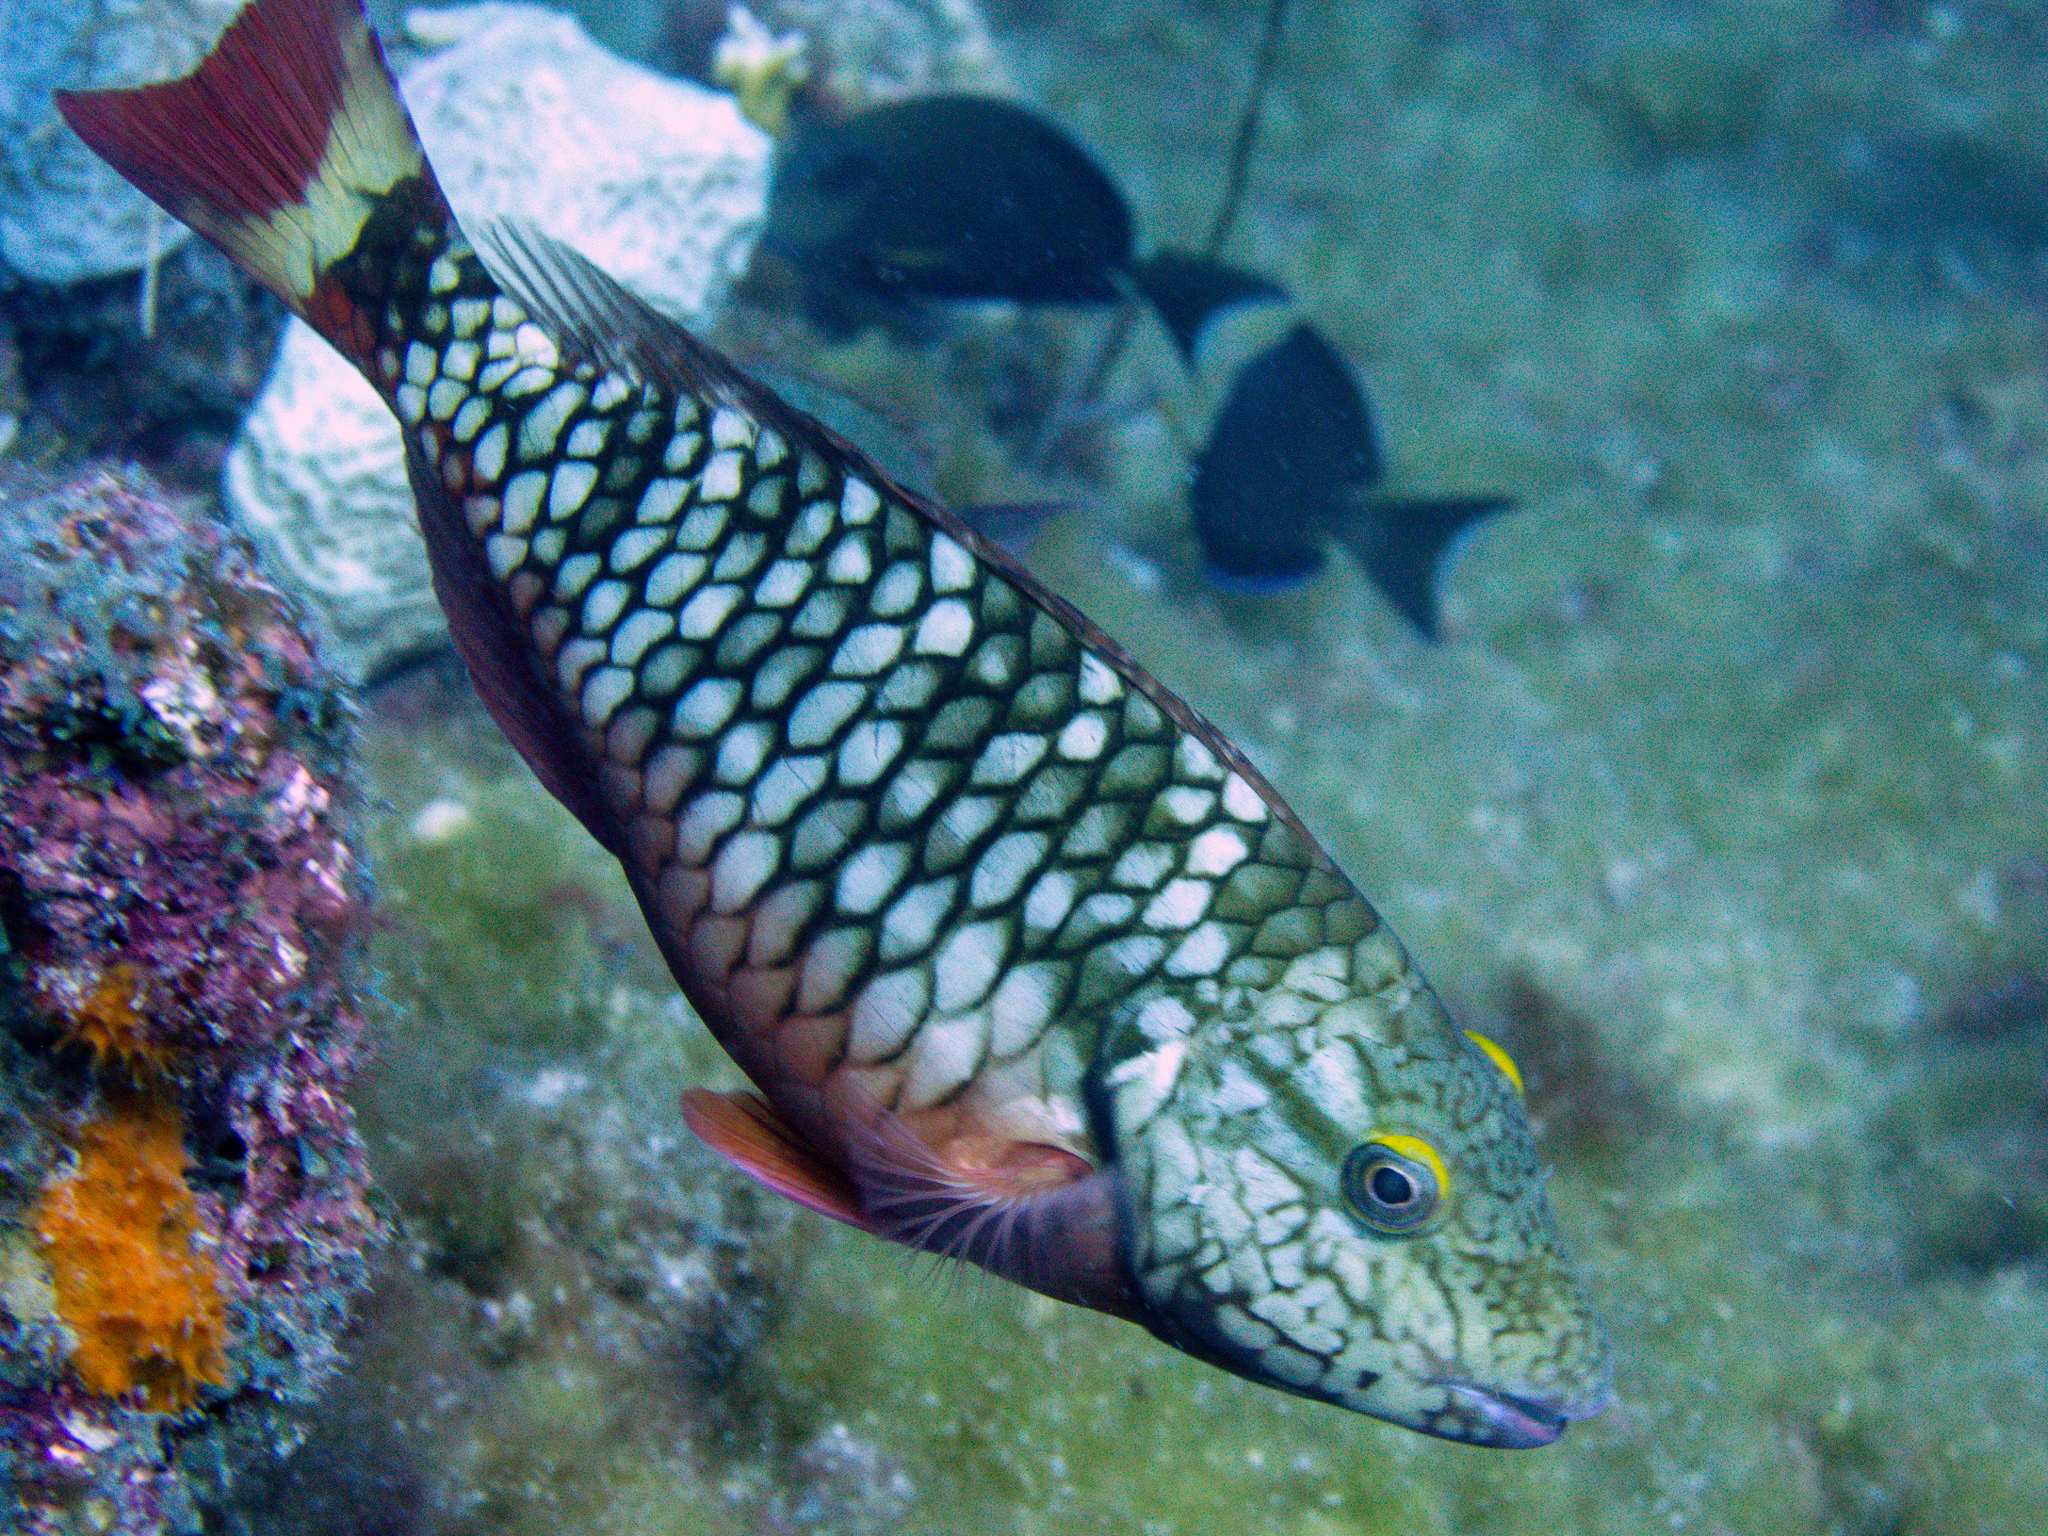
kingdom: Animalia
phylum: Chordata
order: Perciformes
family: Scaridae
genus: Sparisoma
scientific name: Sparisoma viride
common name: Stoplight parrotfish
